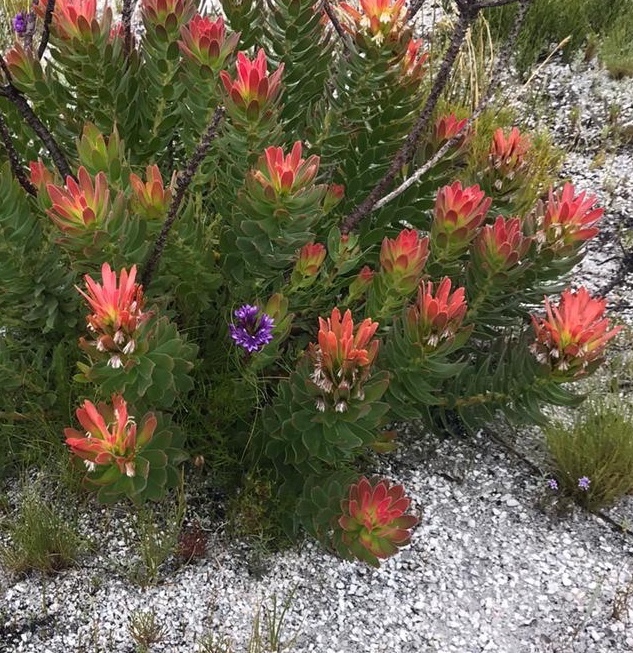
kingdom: Plantae
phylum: Tracheophyta
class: Liliopsida
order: Asparagales
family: Iridaceae
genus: Thereianthus
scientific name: Thereianthus spicatus
